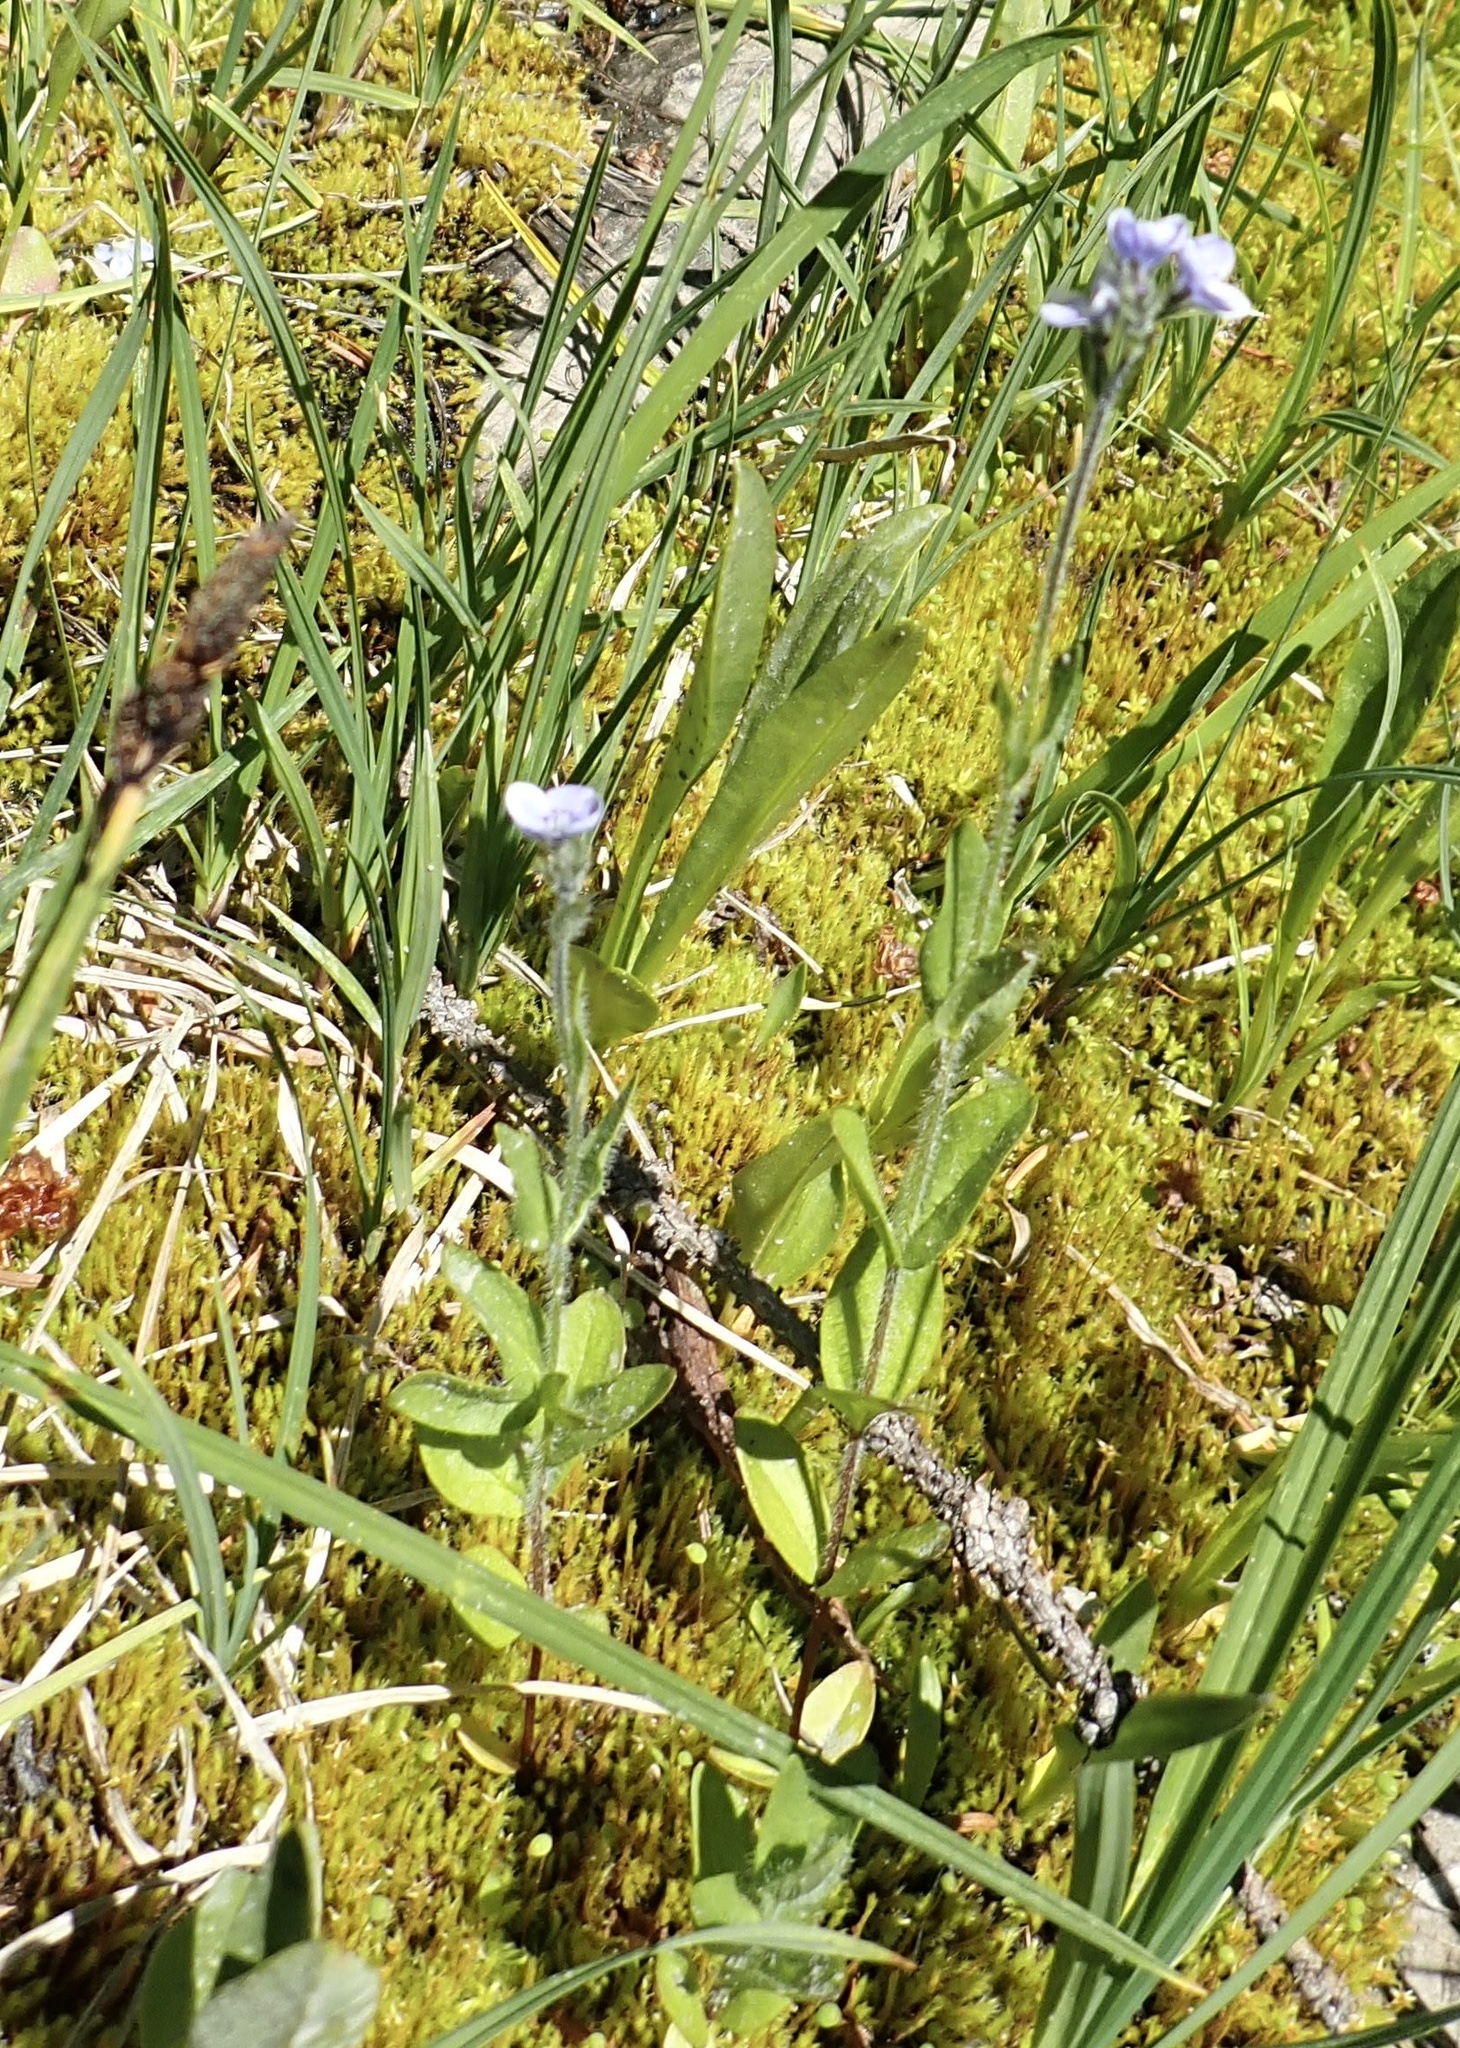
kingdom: Plantae
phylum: Tracheophyta
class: Magnoliopsida
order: Lamiales
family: Plantaginaceae
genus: Veronica
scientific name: Veronica wormskjoldii
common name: American alpine speedwell
